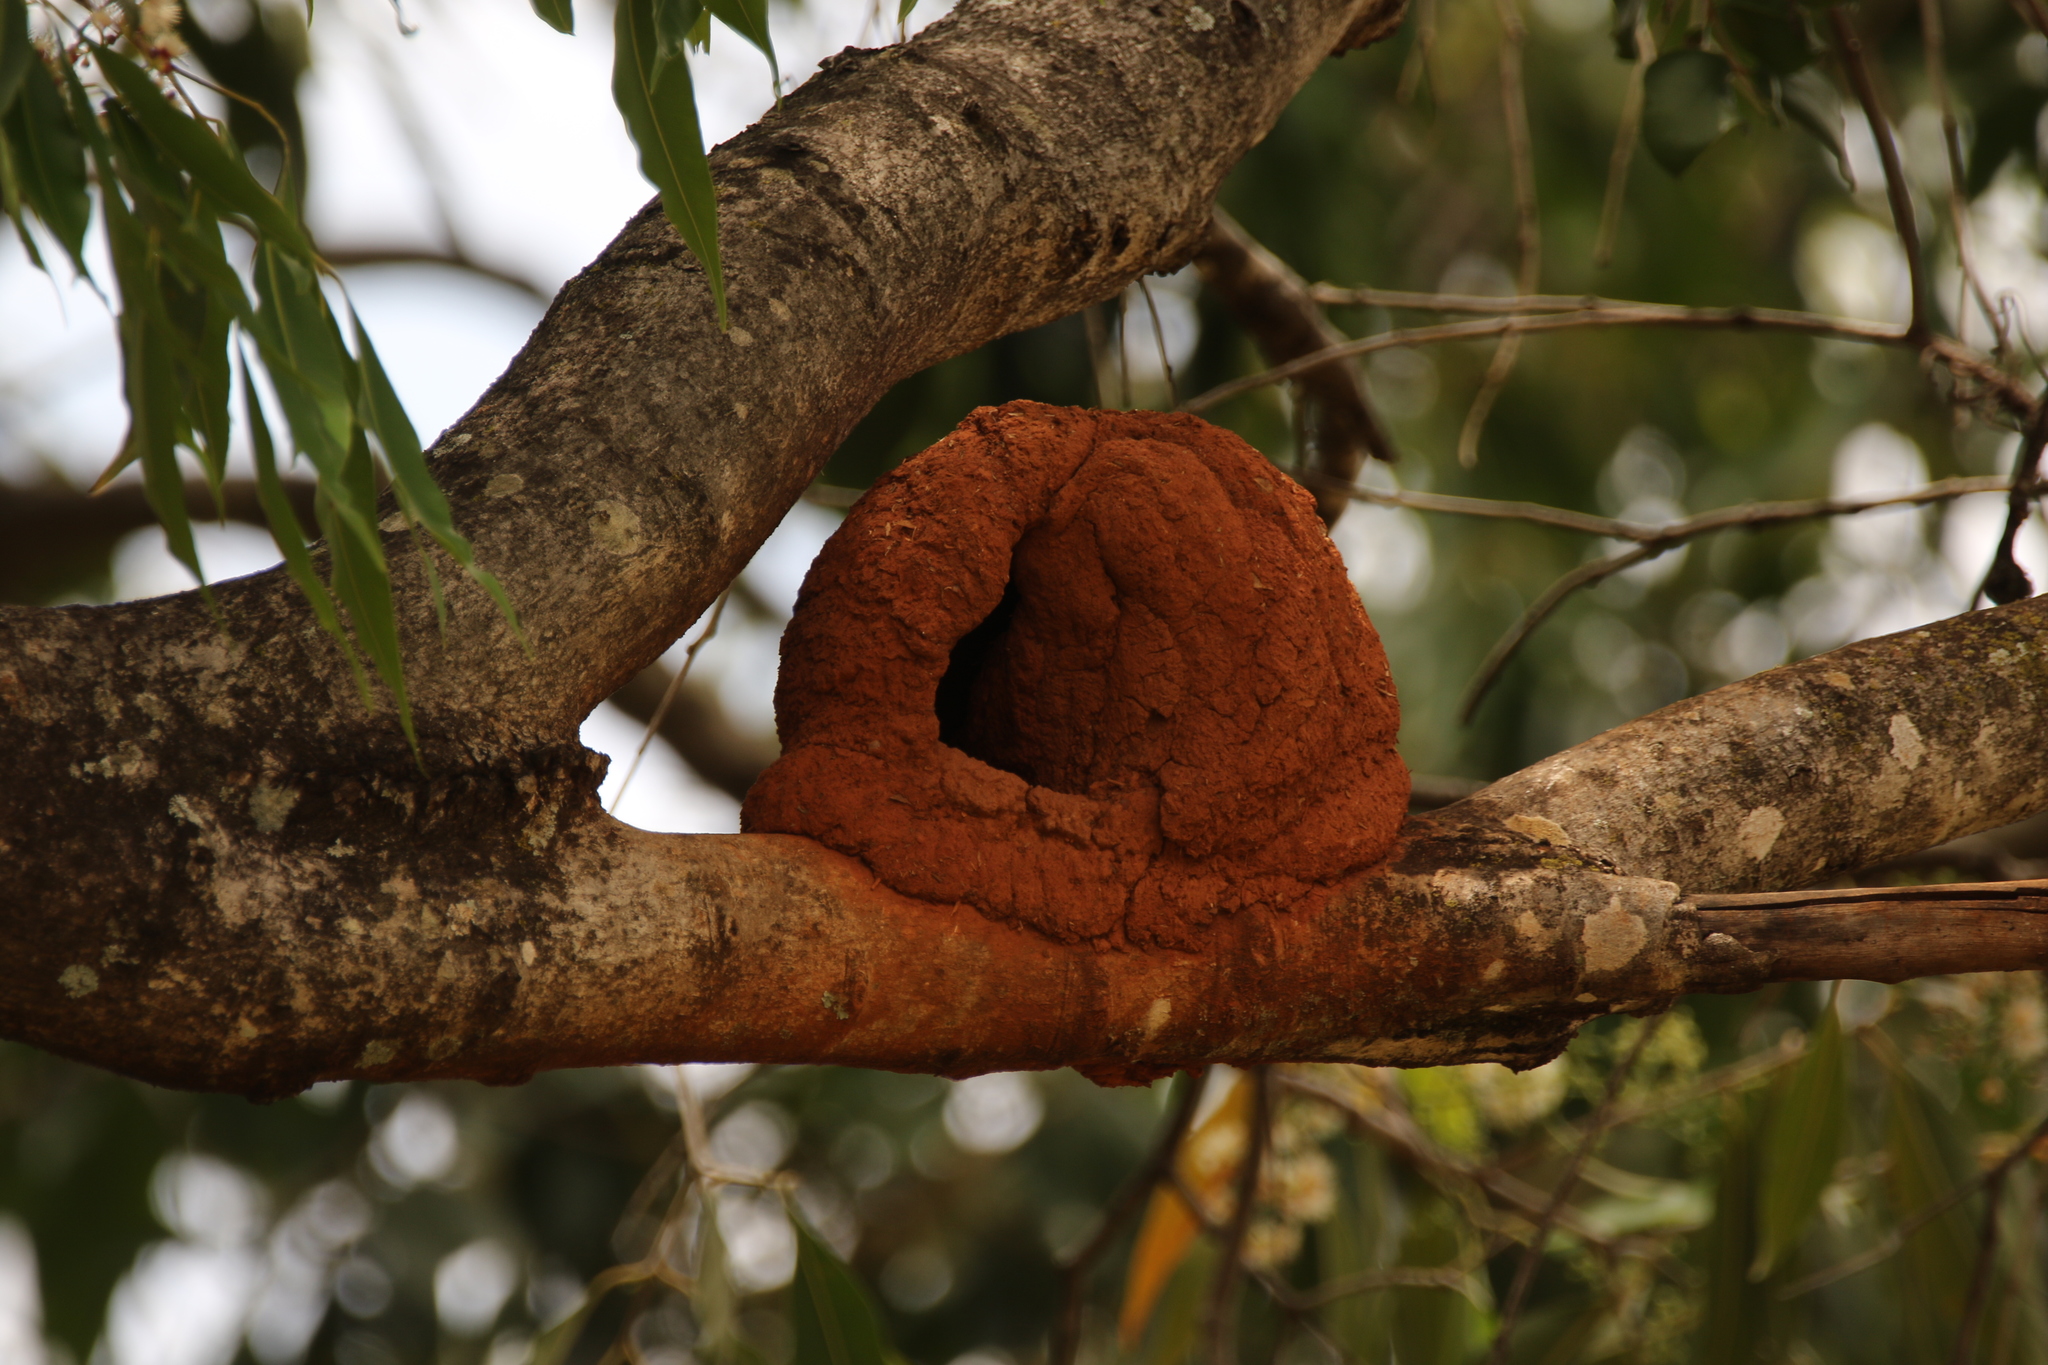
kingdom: Animalia
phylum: Chordata
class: Aves
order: Passeriformes
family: Furnariidae
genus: Furnarius
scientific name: Furnarius rufus
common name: Rufous hornero
